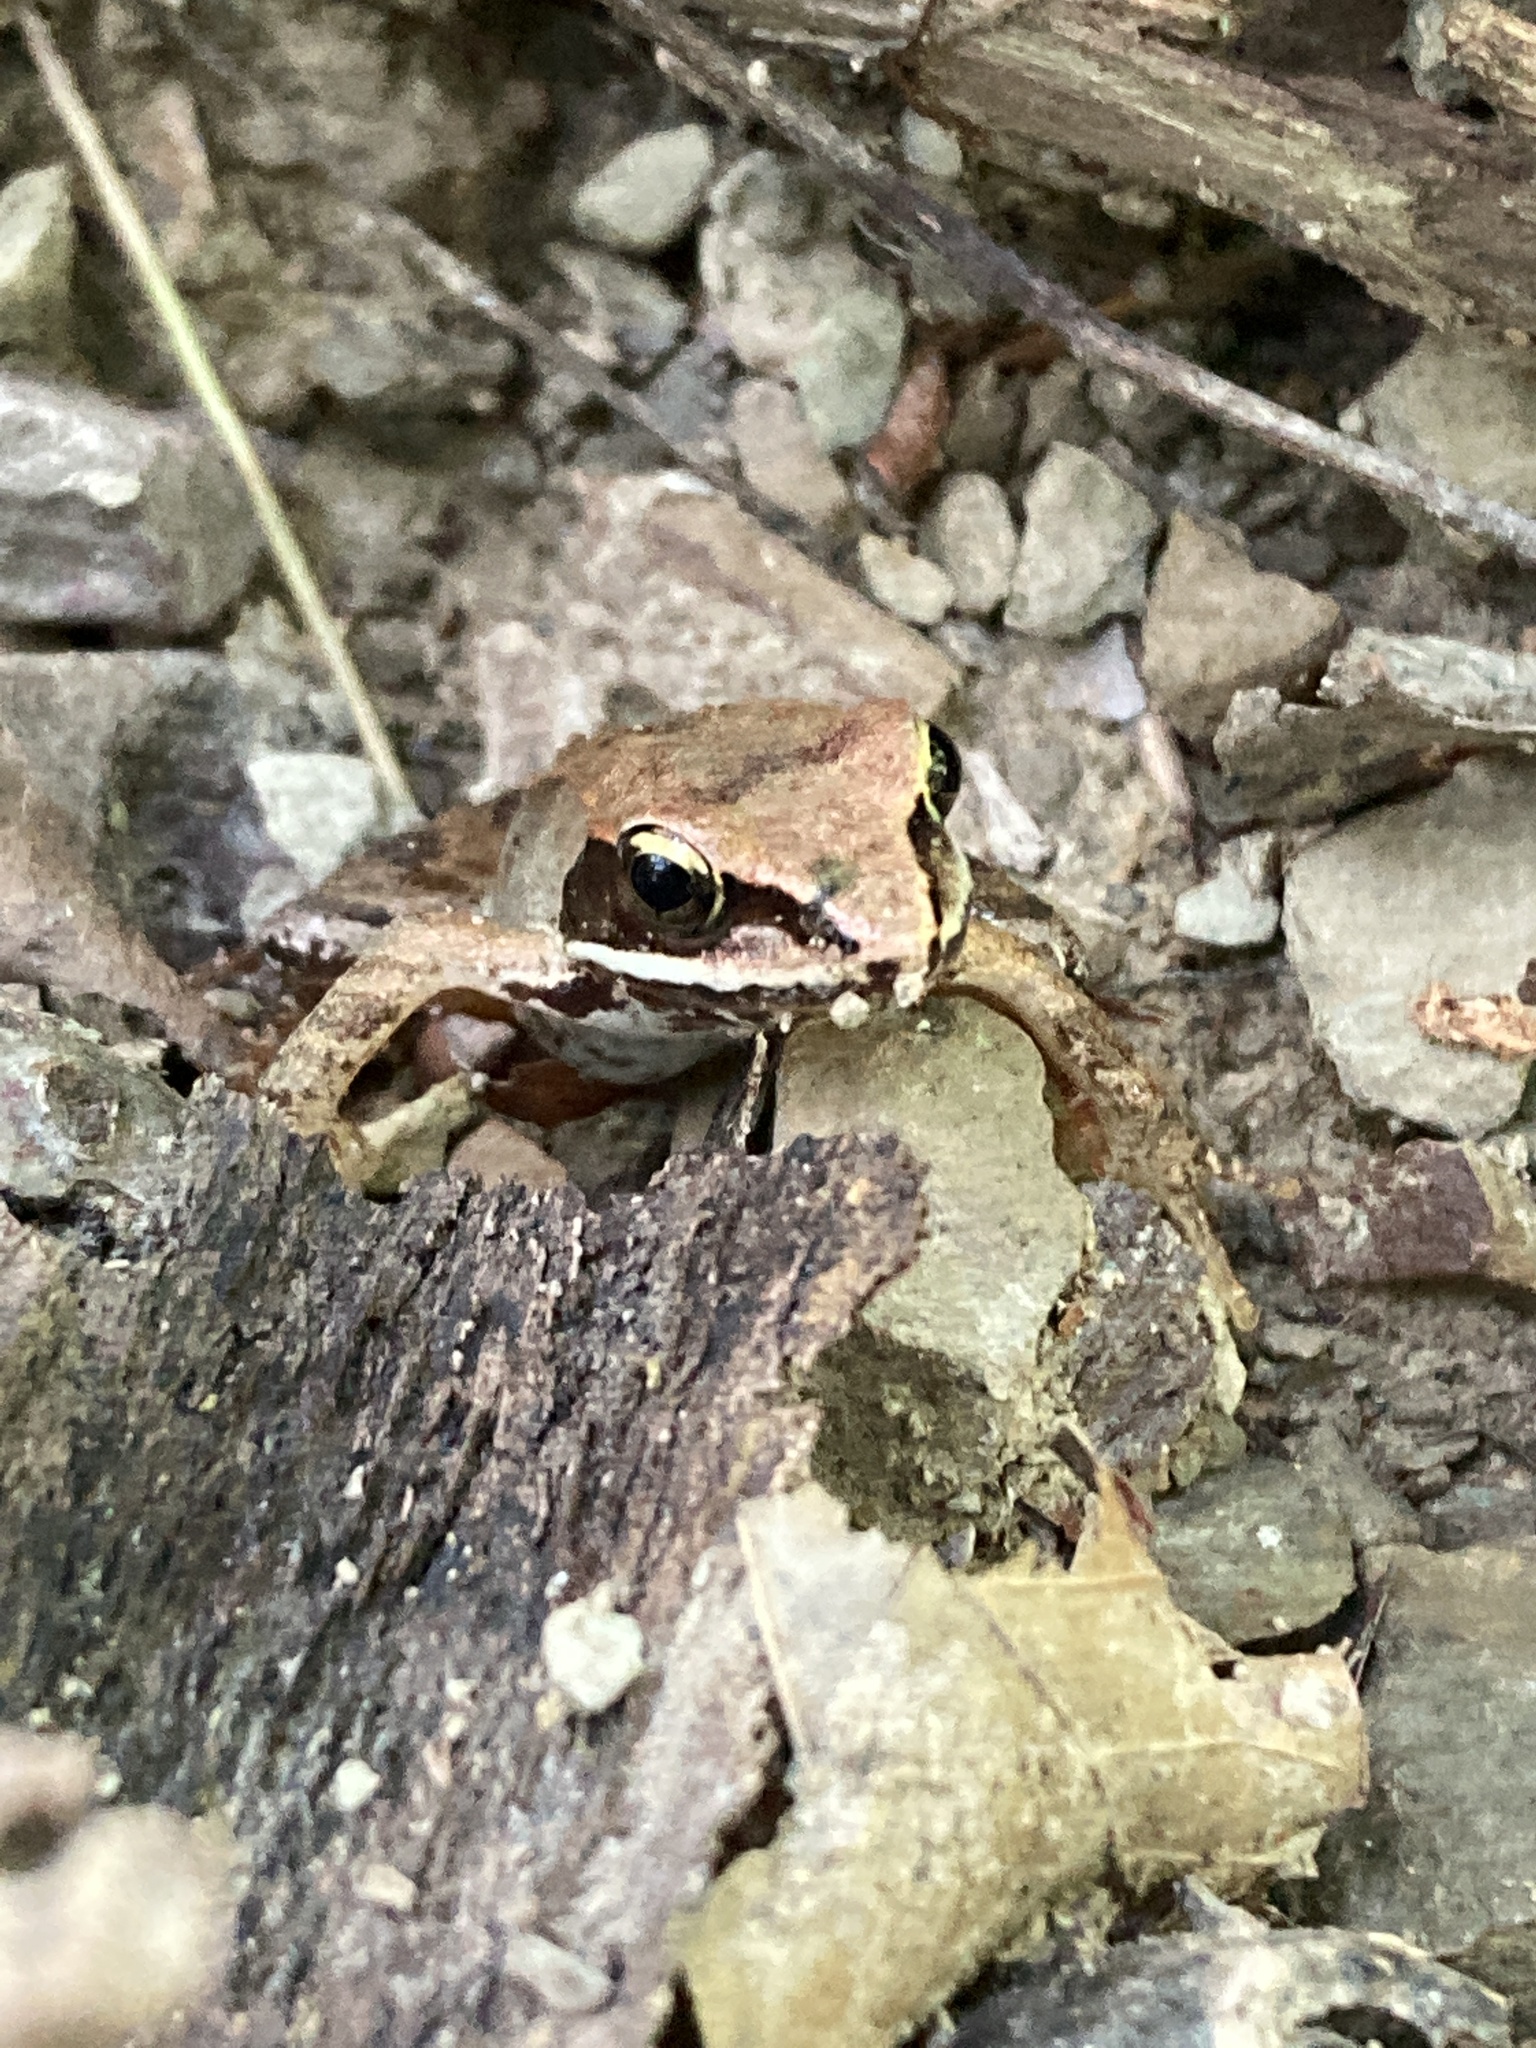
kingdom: Animalia
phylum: Chordata
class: Amphibia
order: Anura
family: Ranidae
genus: Lithobates
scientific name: Lithobates sylvaticus
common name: Wood frog
